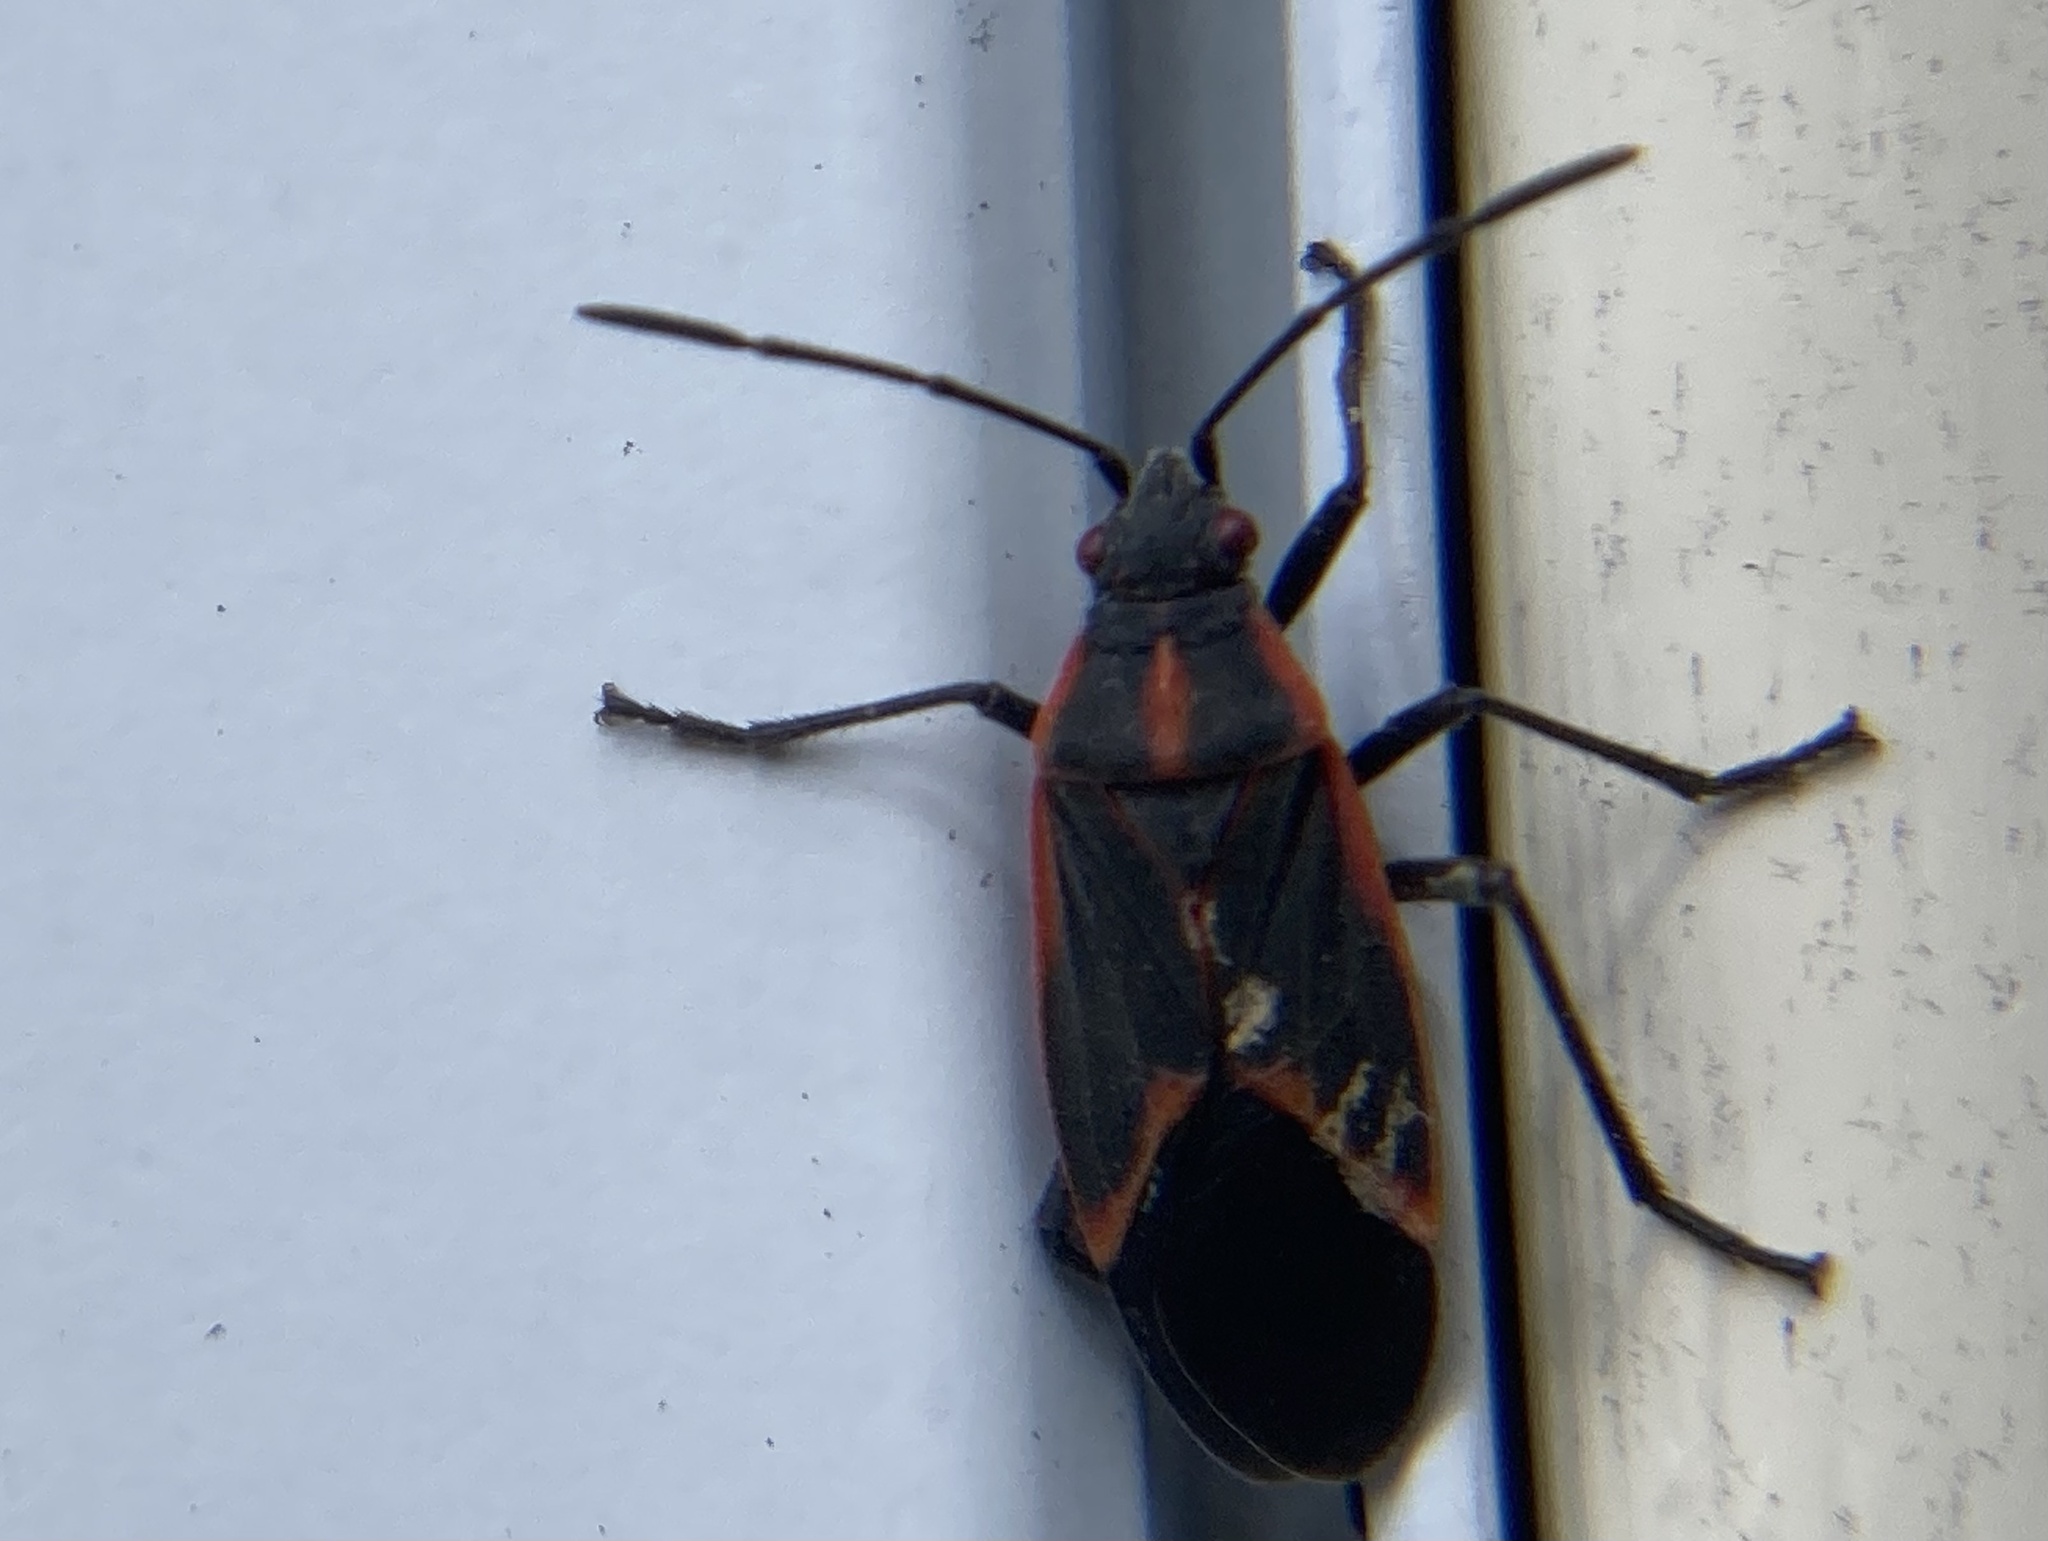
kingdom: Animalia
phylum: Arthropoda
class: Insecta
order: Hemiptera
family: Rhopalidae
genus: Boisea
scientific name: Boisea trivittata
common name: Boxelder bug
